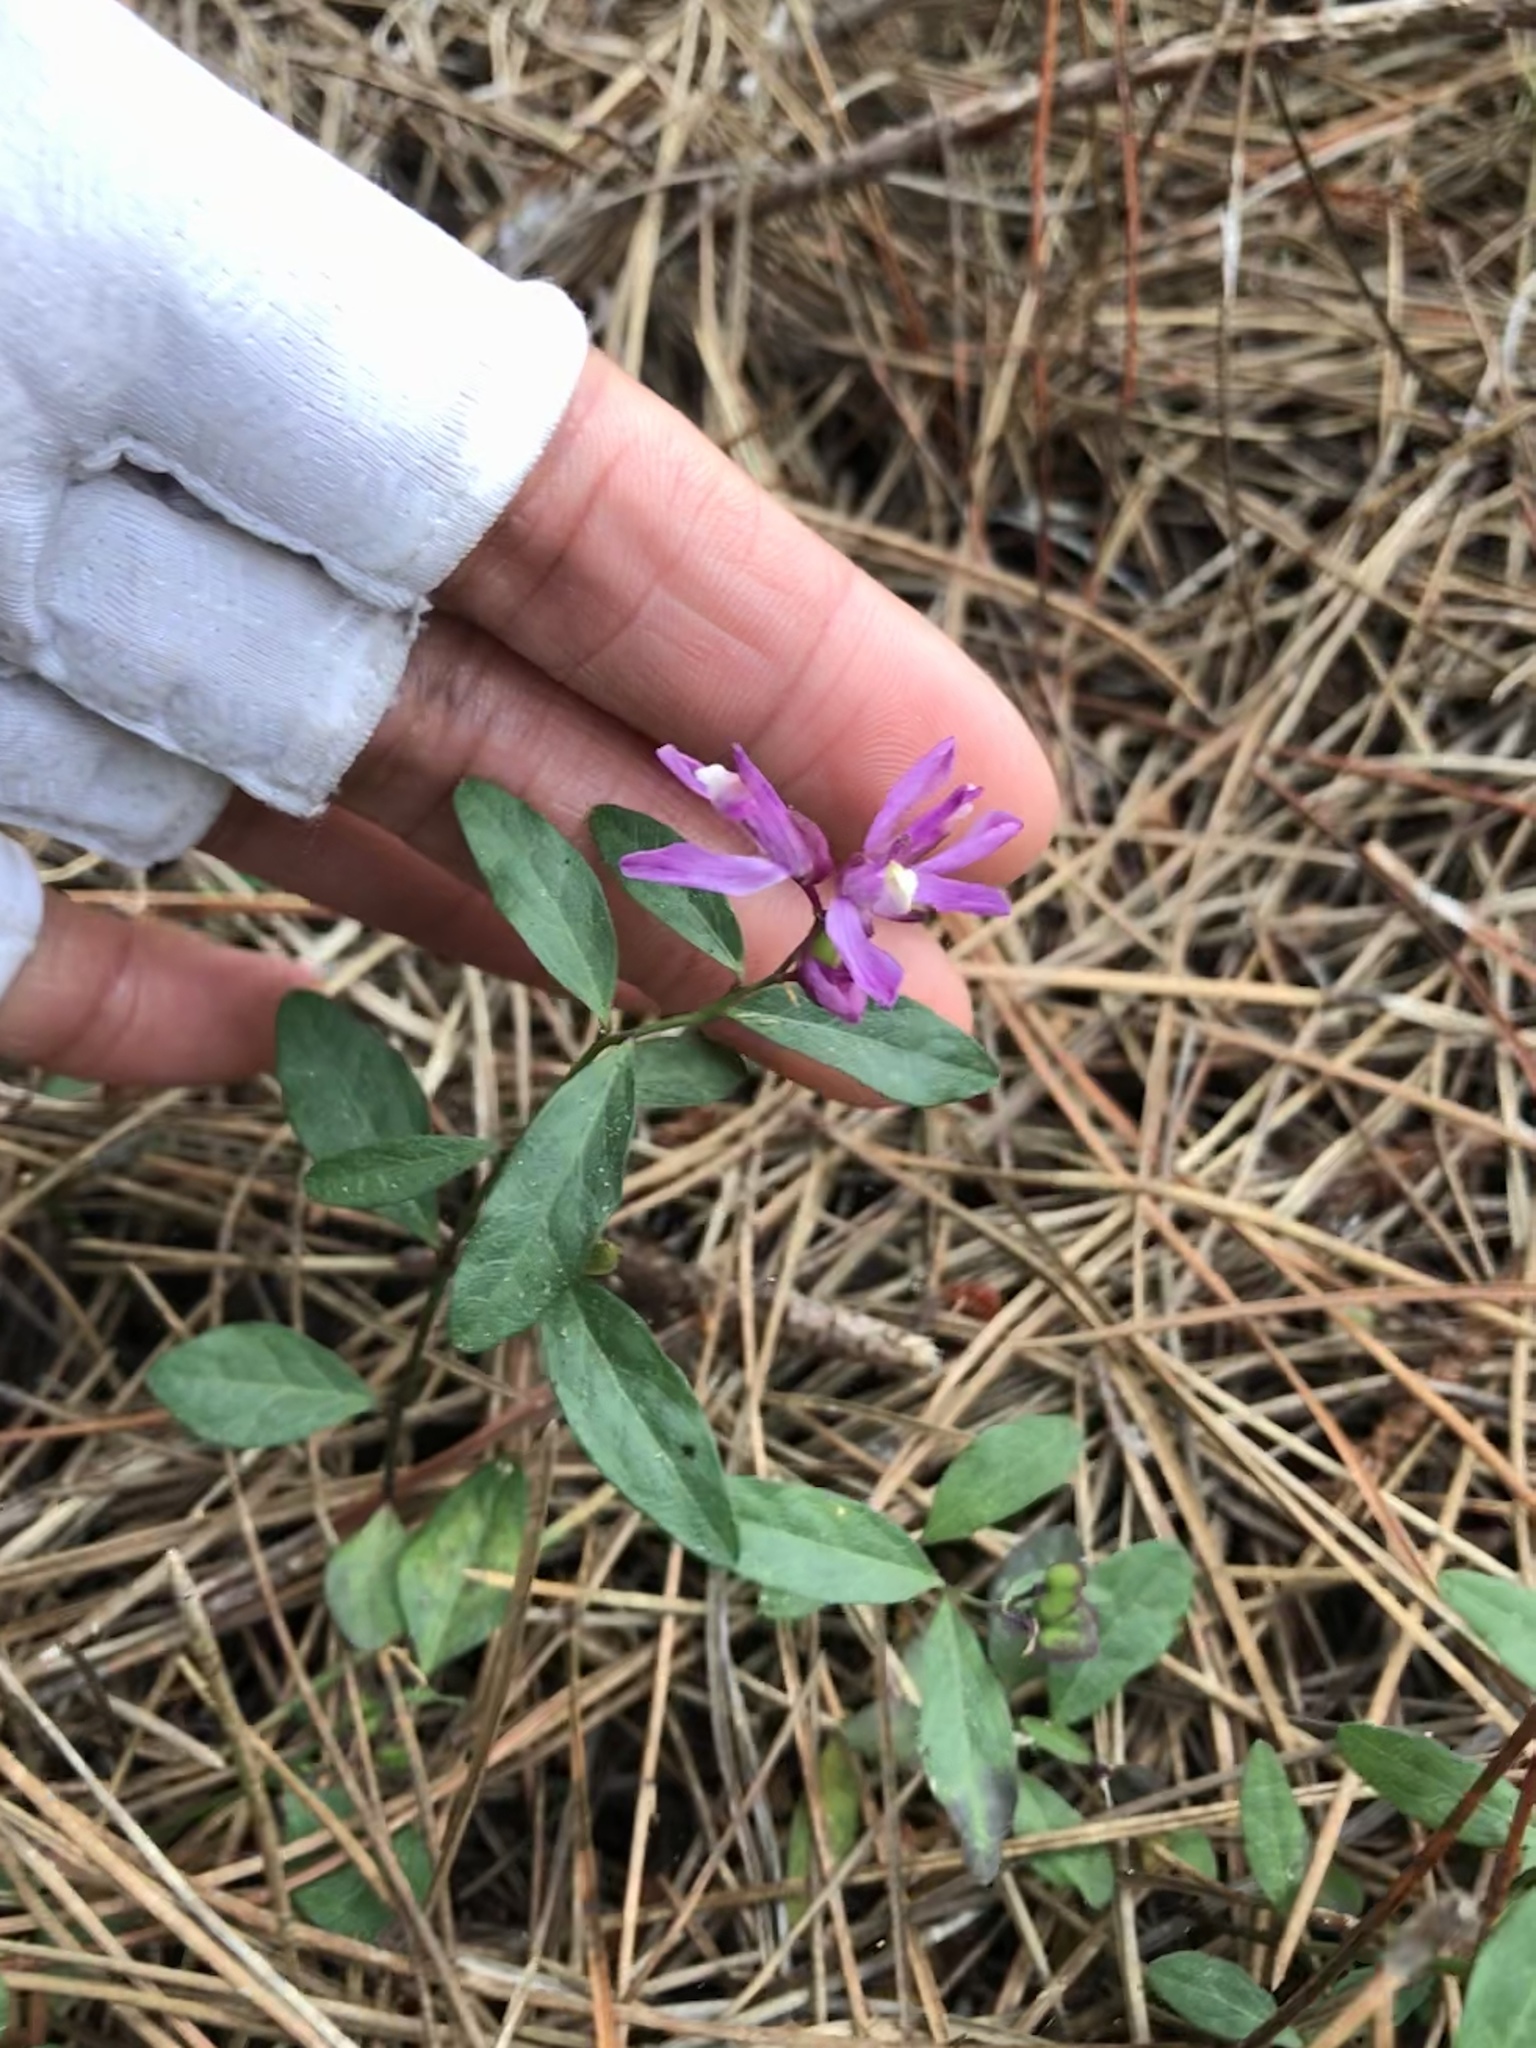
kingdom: Plantae
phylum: Tracheophyta
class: Magnoliopsida
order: Fabales
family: Polygalaceae
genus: Rhinotropis
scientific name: Rhinotropis californica
